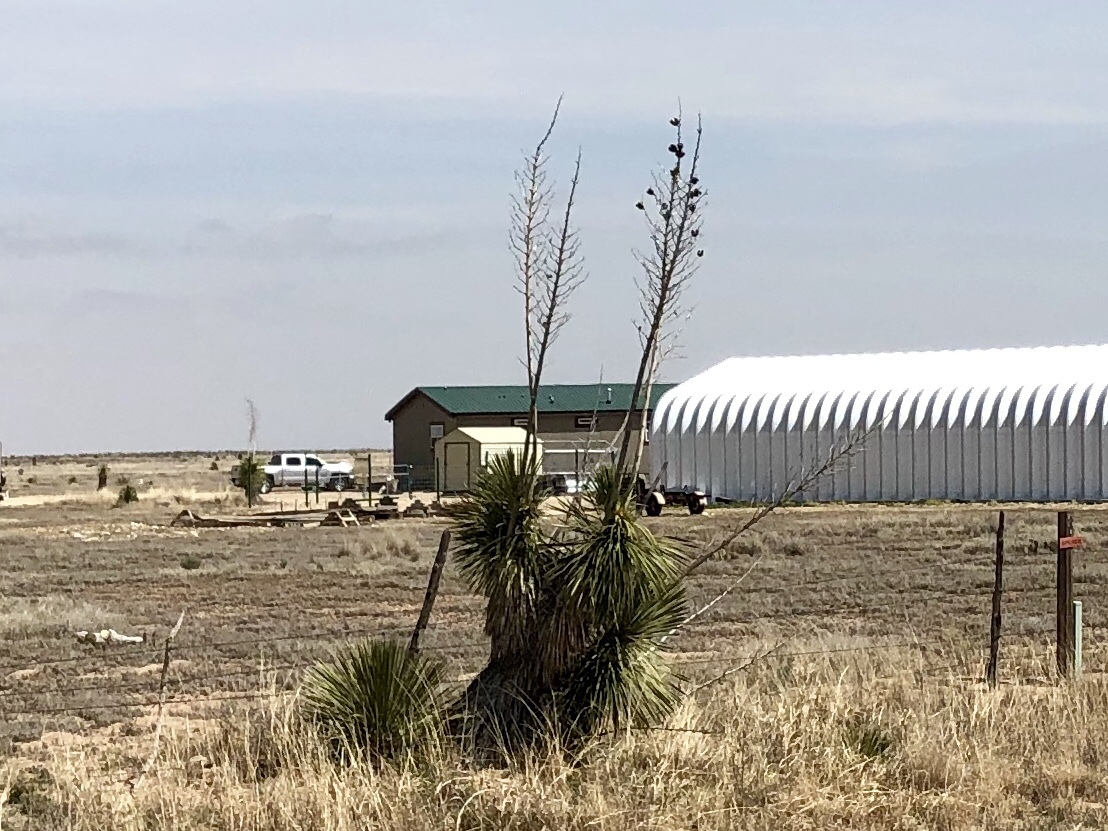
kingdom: Plantae
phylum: Tracheophyta
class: Liliopsida
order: Asparagales
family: Asparagaceae
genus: Yucca
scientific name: Yucca elata
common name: Palmella
